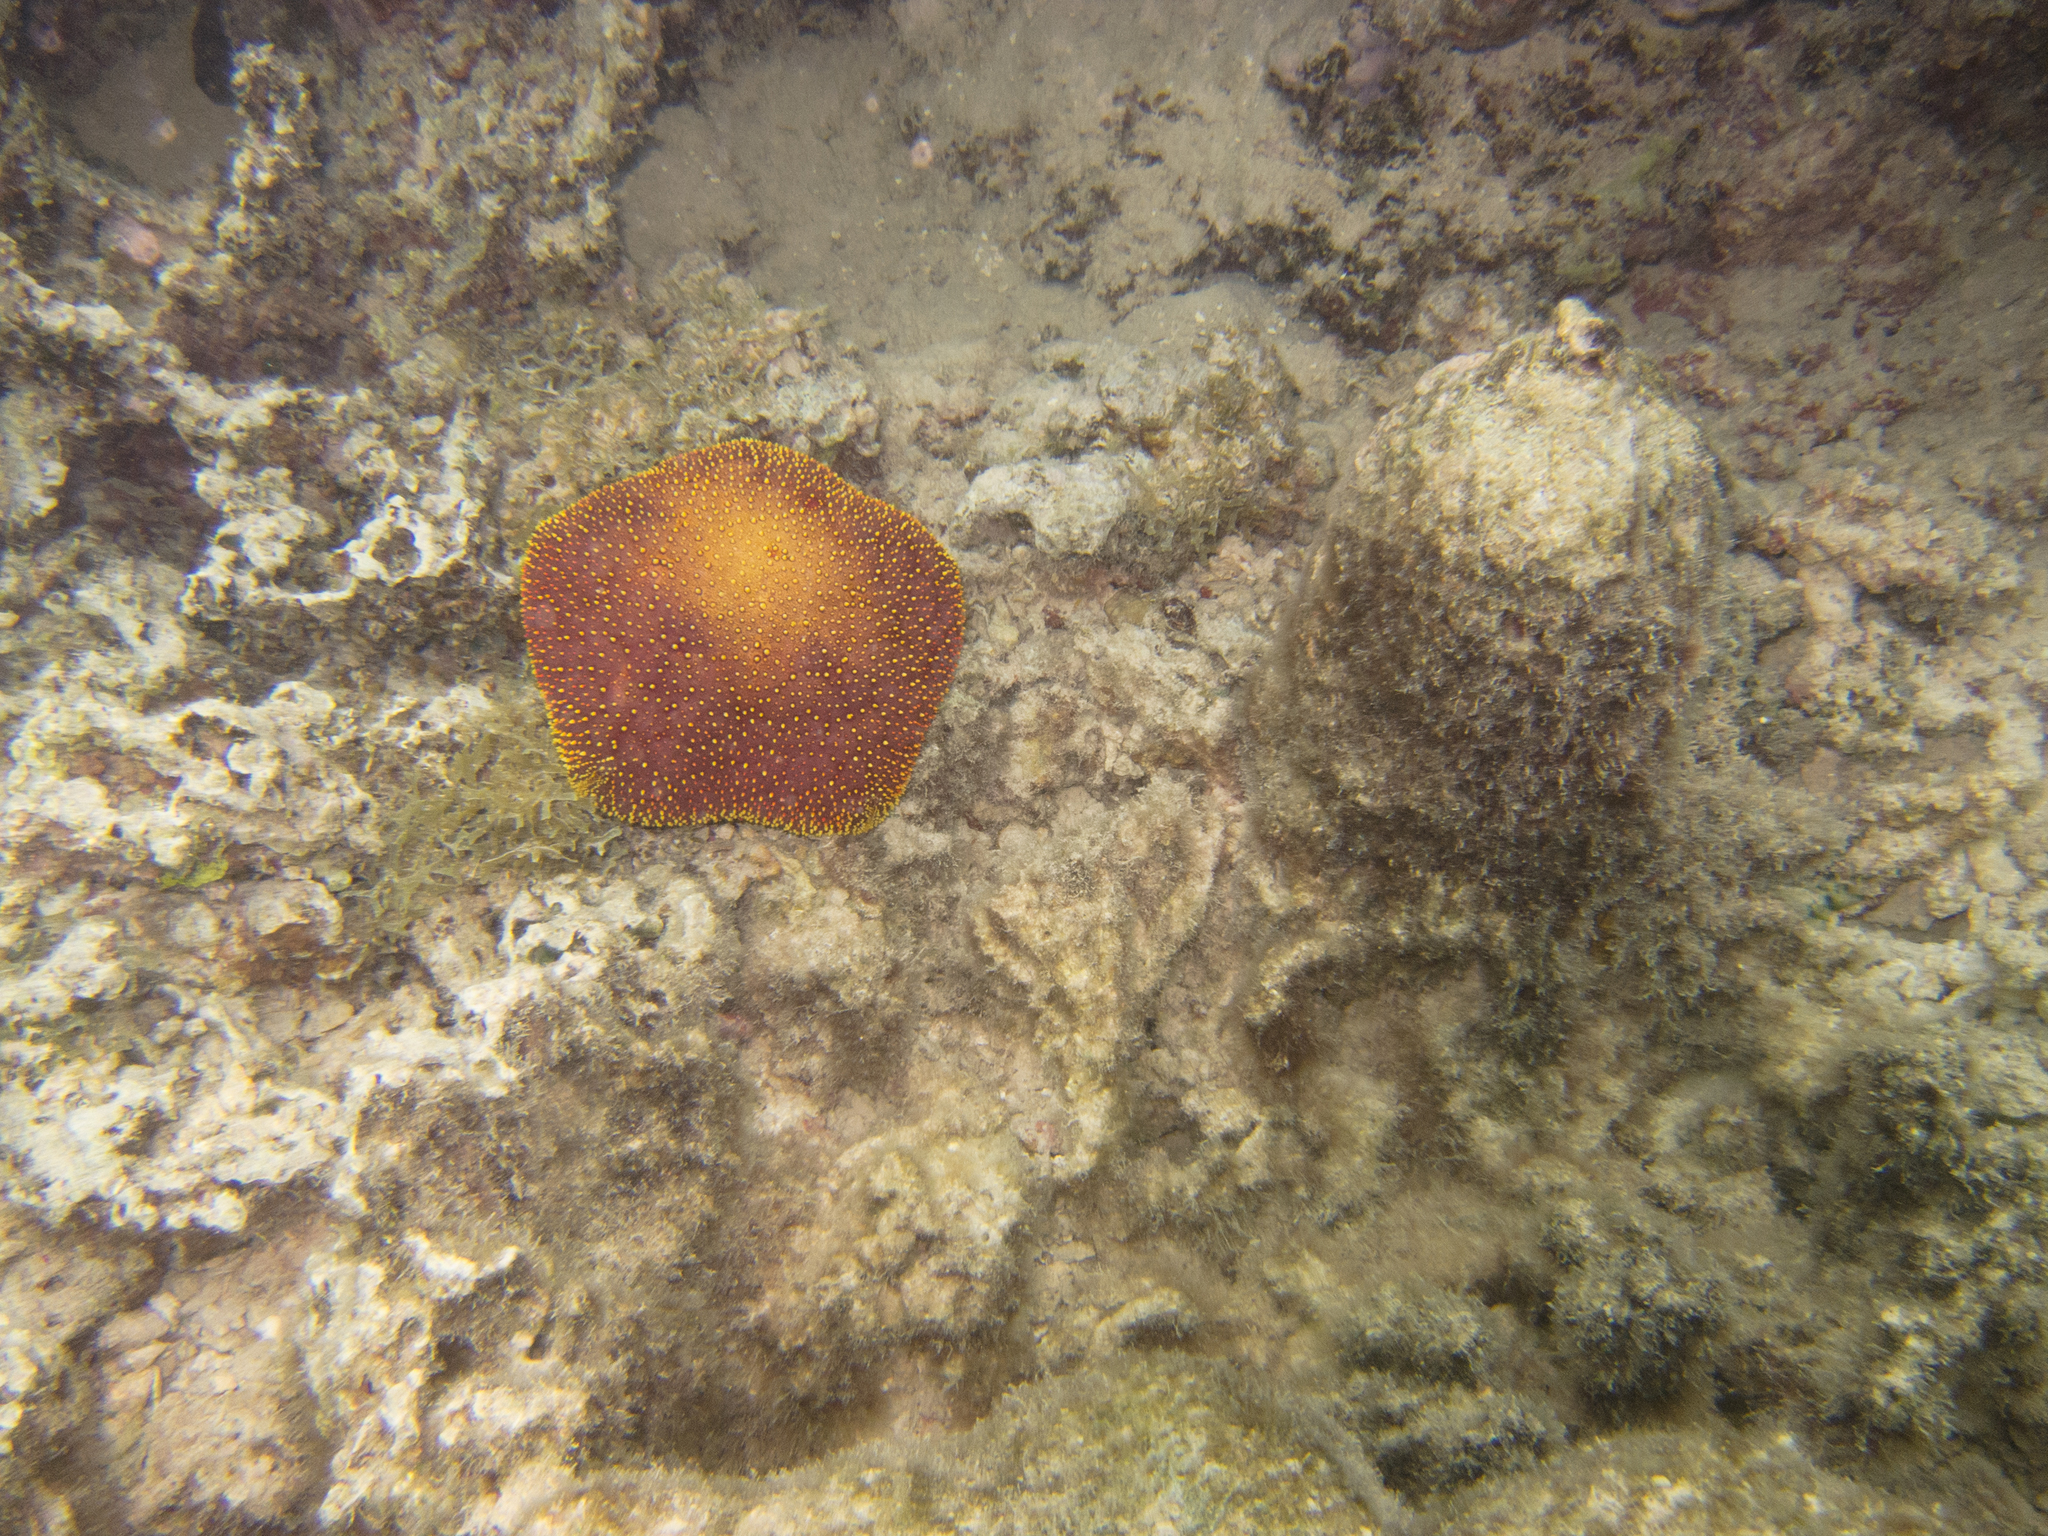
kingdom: Animalia
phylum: Echinodermata
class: Asteroidea
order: Valvatida
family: Oreasteridae
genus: Culcita
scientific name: Culcita novaeguineae
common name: Cushion star
